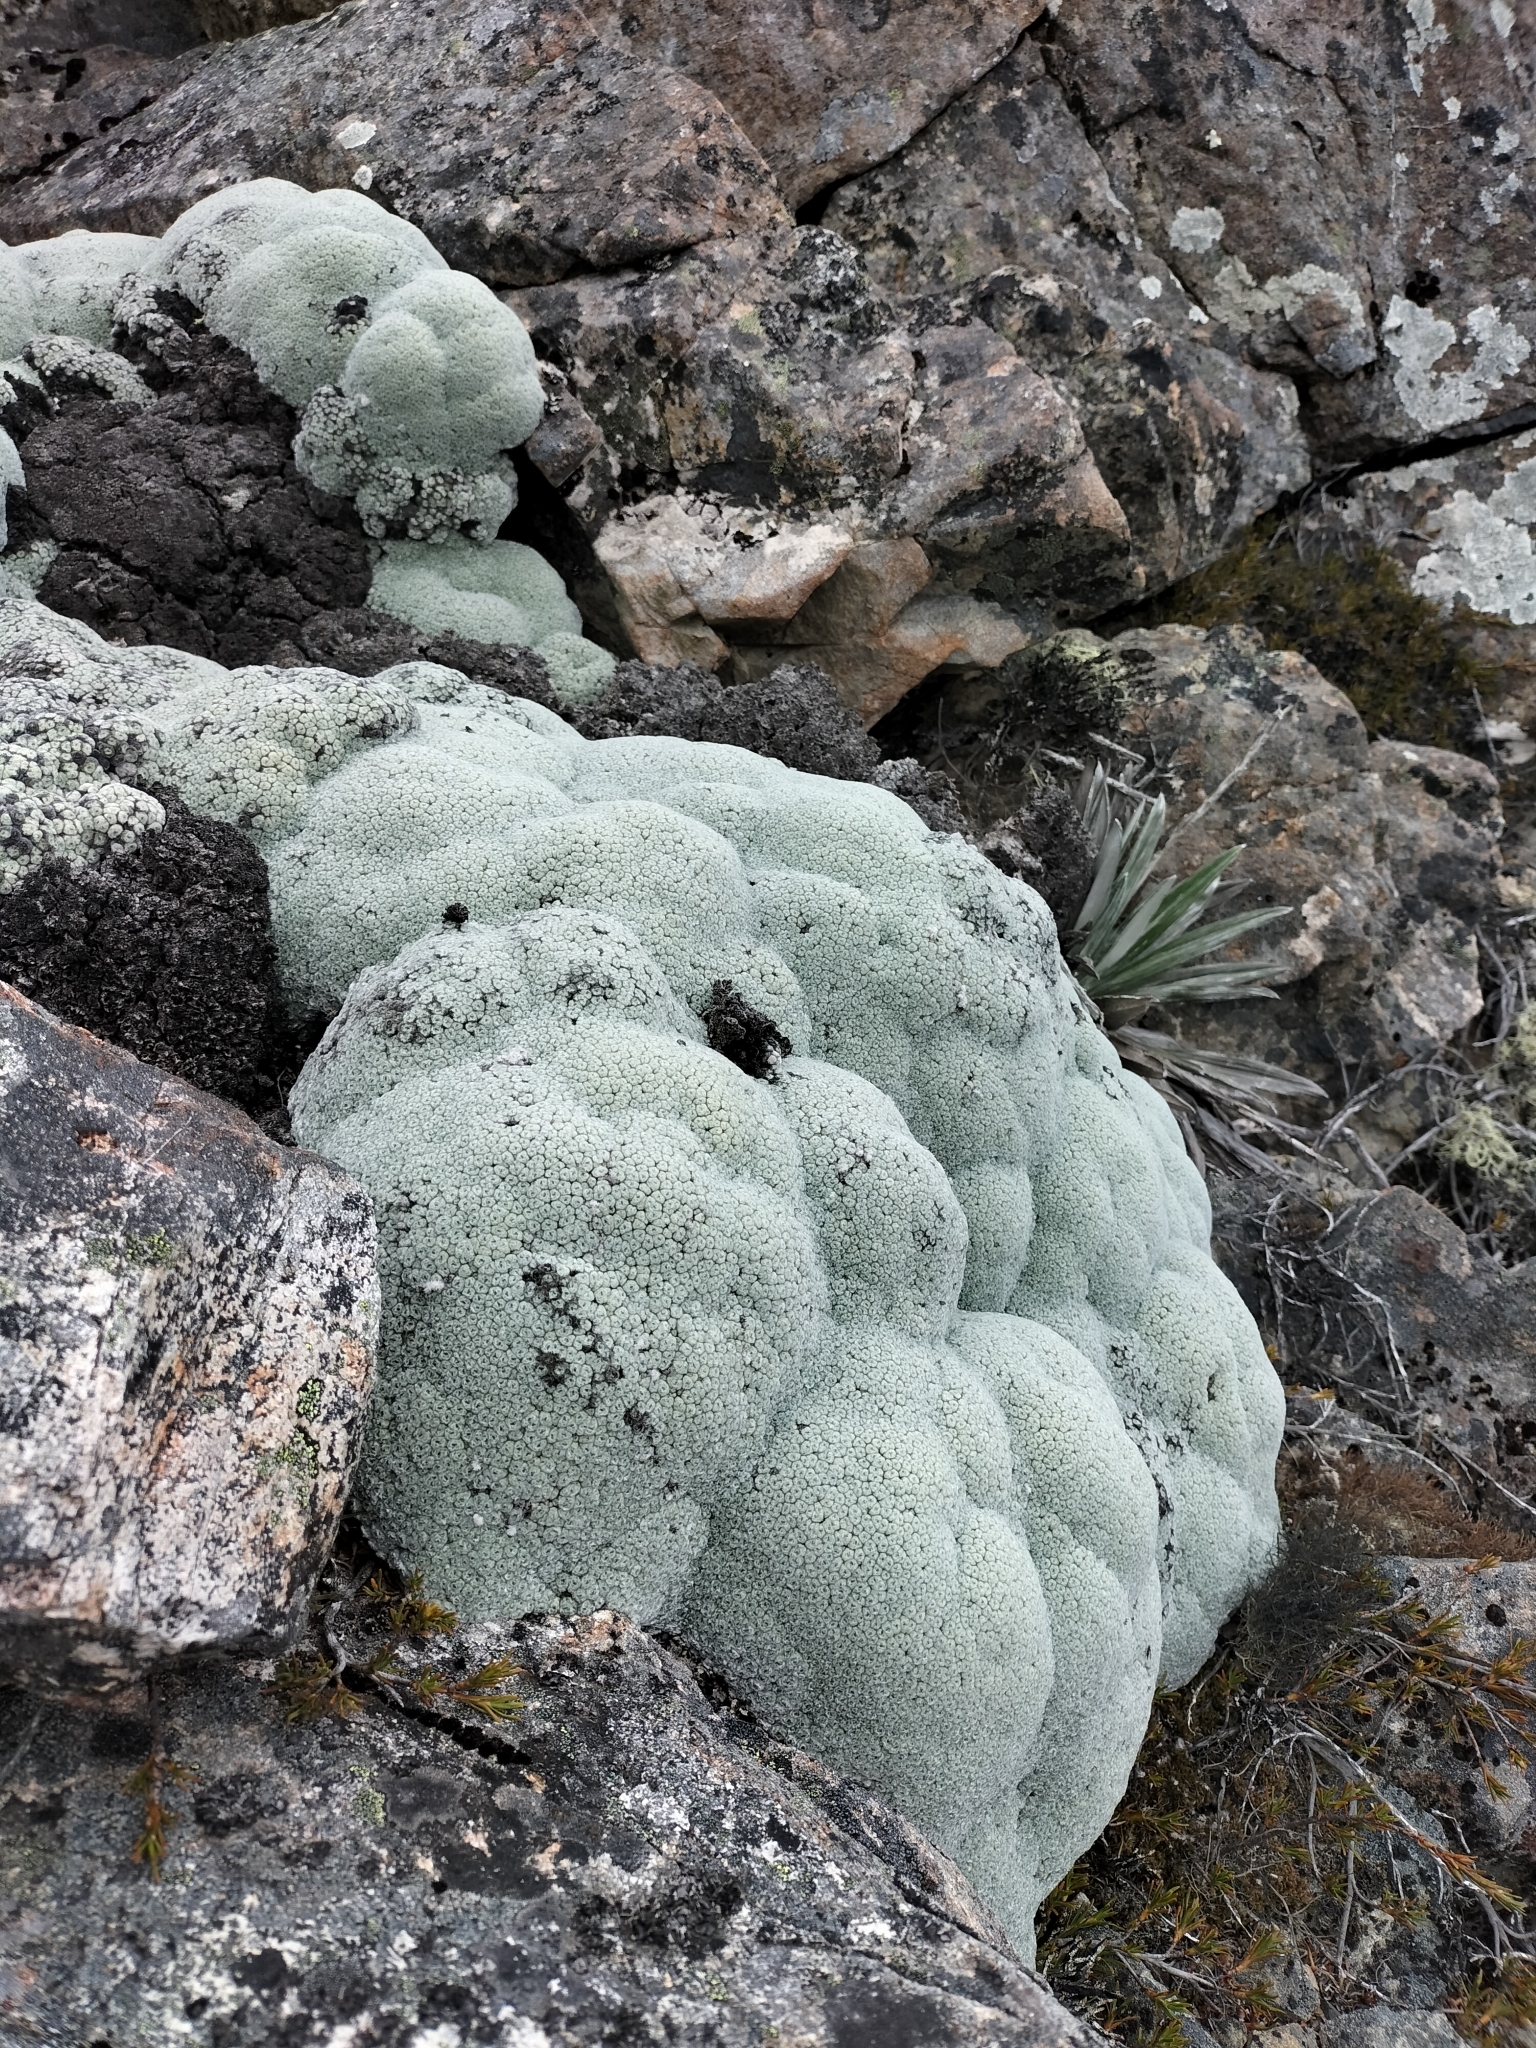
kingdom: Plantae
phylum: Tracheophyta
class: Magnoliopsida
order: Asterales
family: Asteraceae
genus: Raoulia
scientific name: Raoulia eximia
